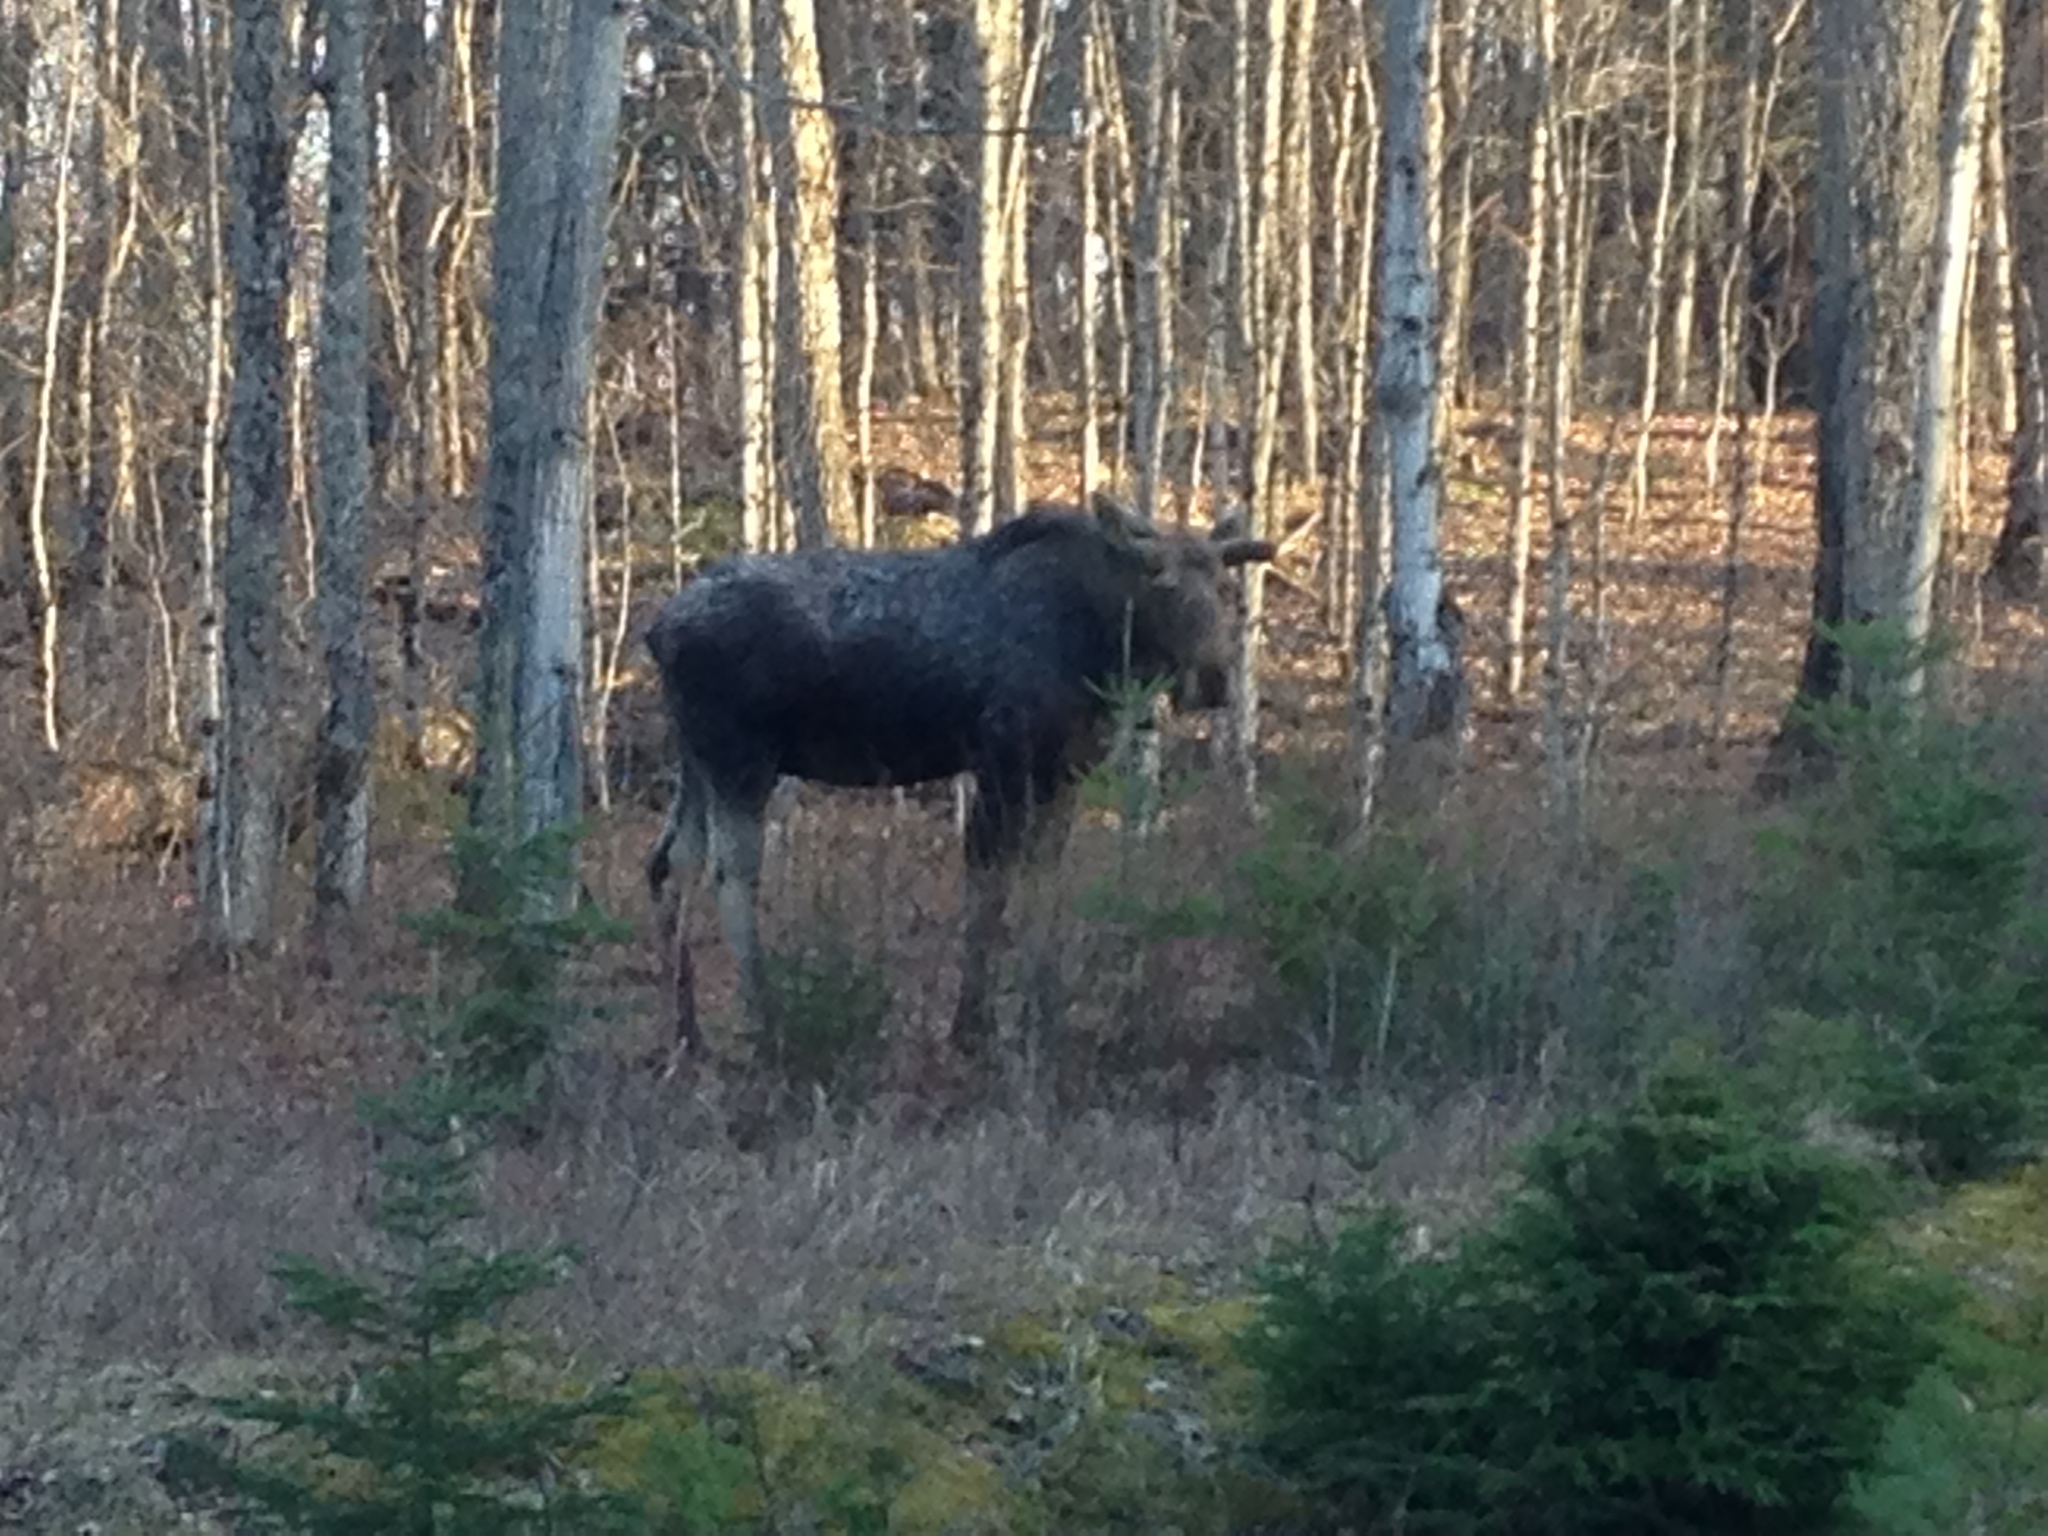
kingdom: Animalia
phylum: Chordata
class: Mammalia
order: Artiodactyla
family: Cervidae
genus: Alces
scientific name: Alces alces
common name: Moose
